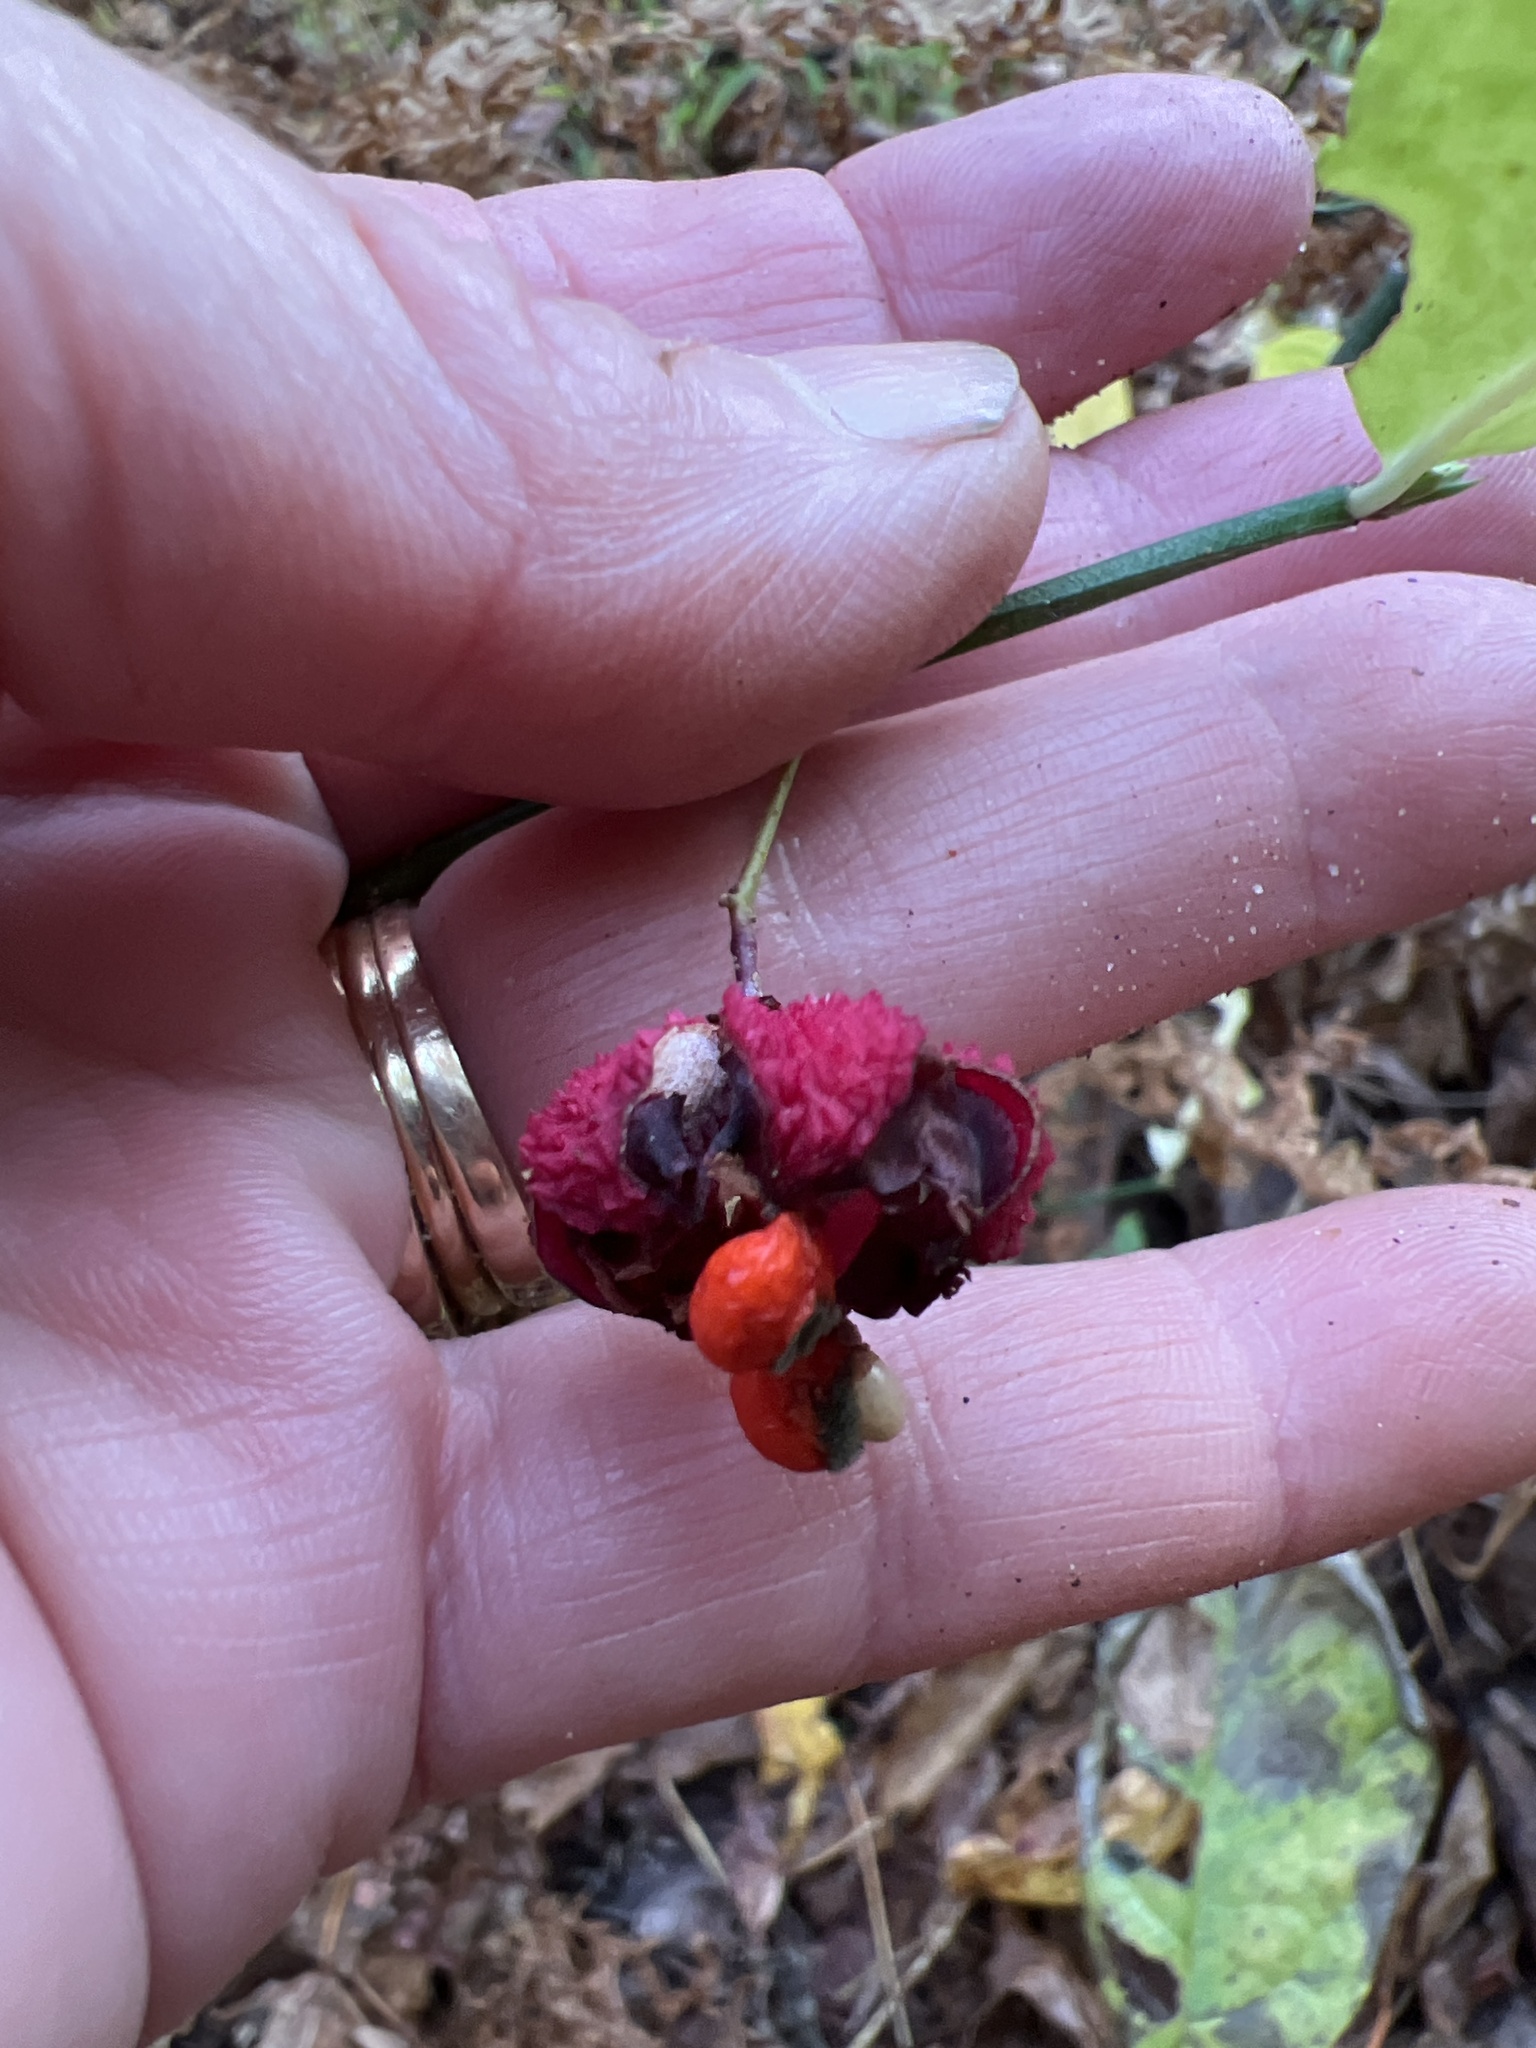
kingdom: Plantae
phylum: Tracheophyta
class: Magnoliopsida
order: Celastrales
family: Celastraceae
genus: Euonymus
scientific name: Euonymus americanus
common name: Bursting-heart
